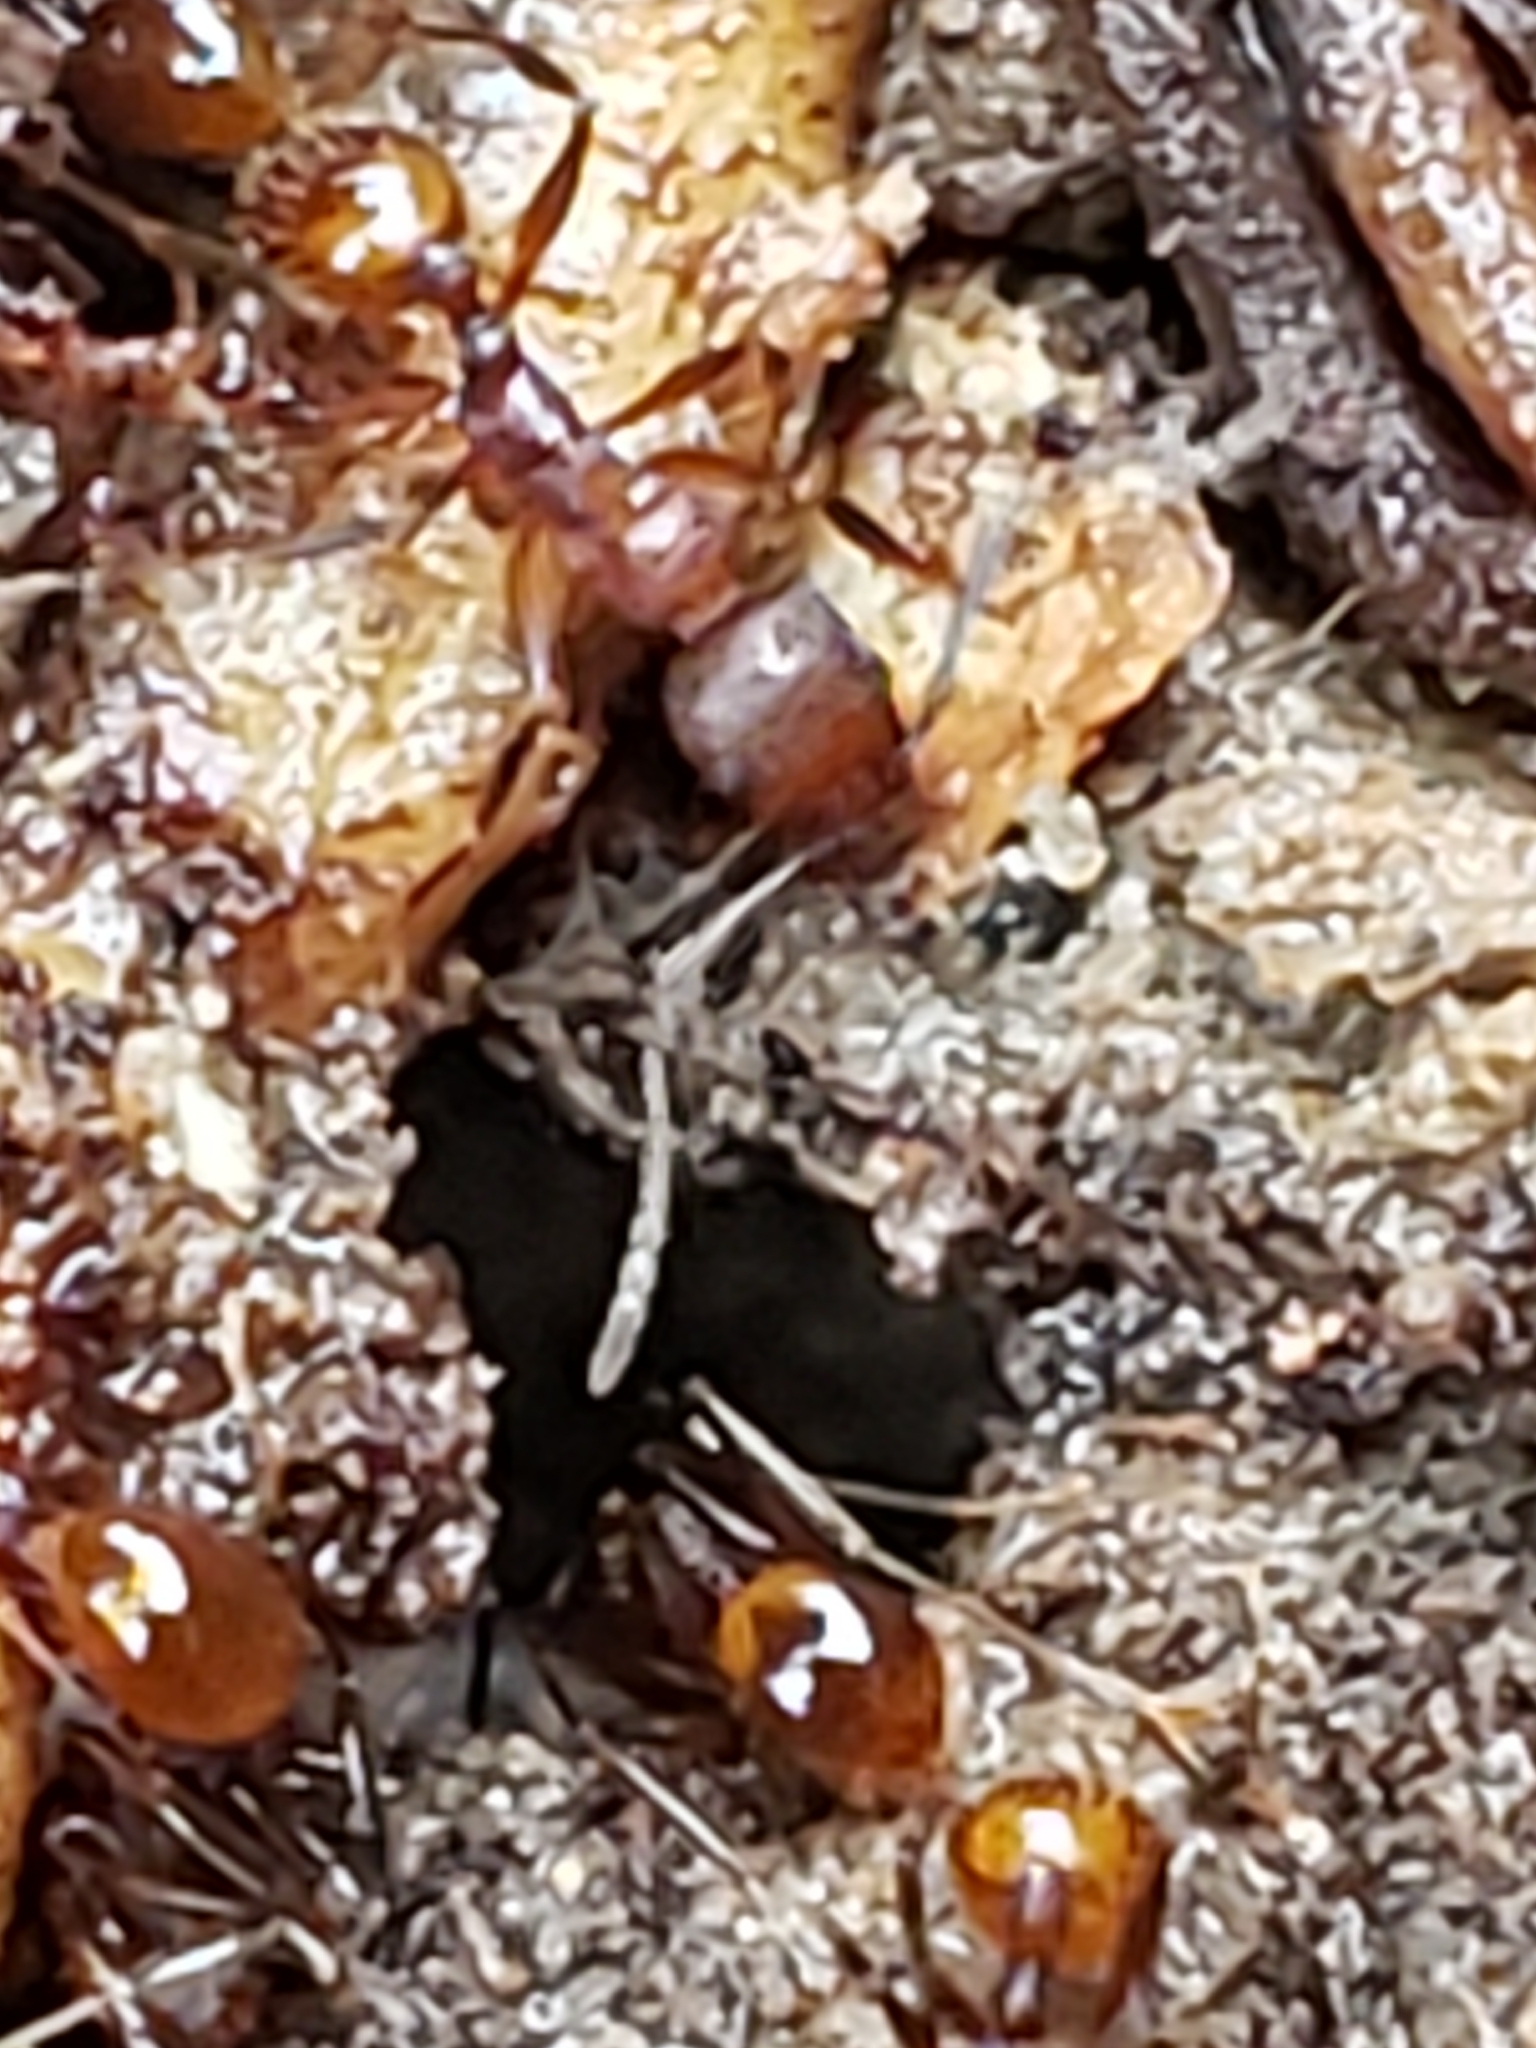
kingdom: Animalia
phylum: Arthropoda
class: Insecta
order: Hymenoptera
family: Formicidae
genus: Aphaenogaster
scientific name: Aphaenogaster fulva
